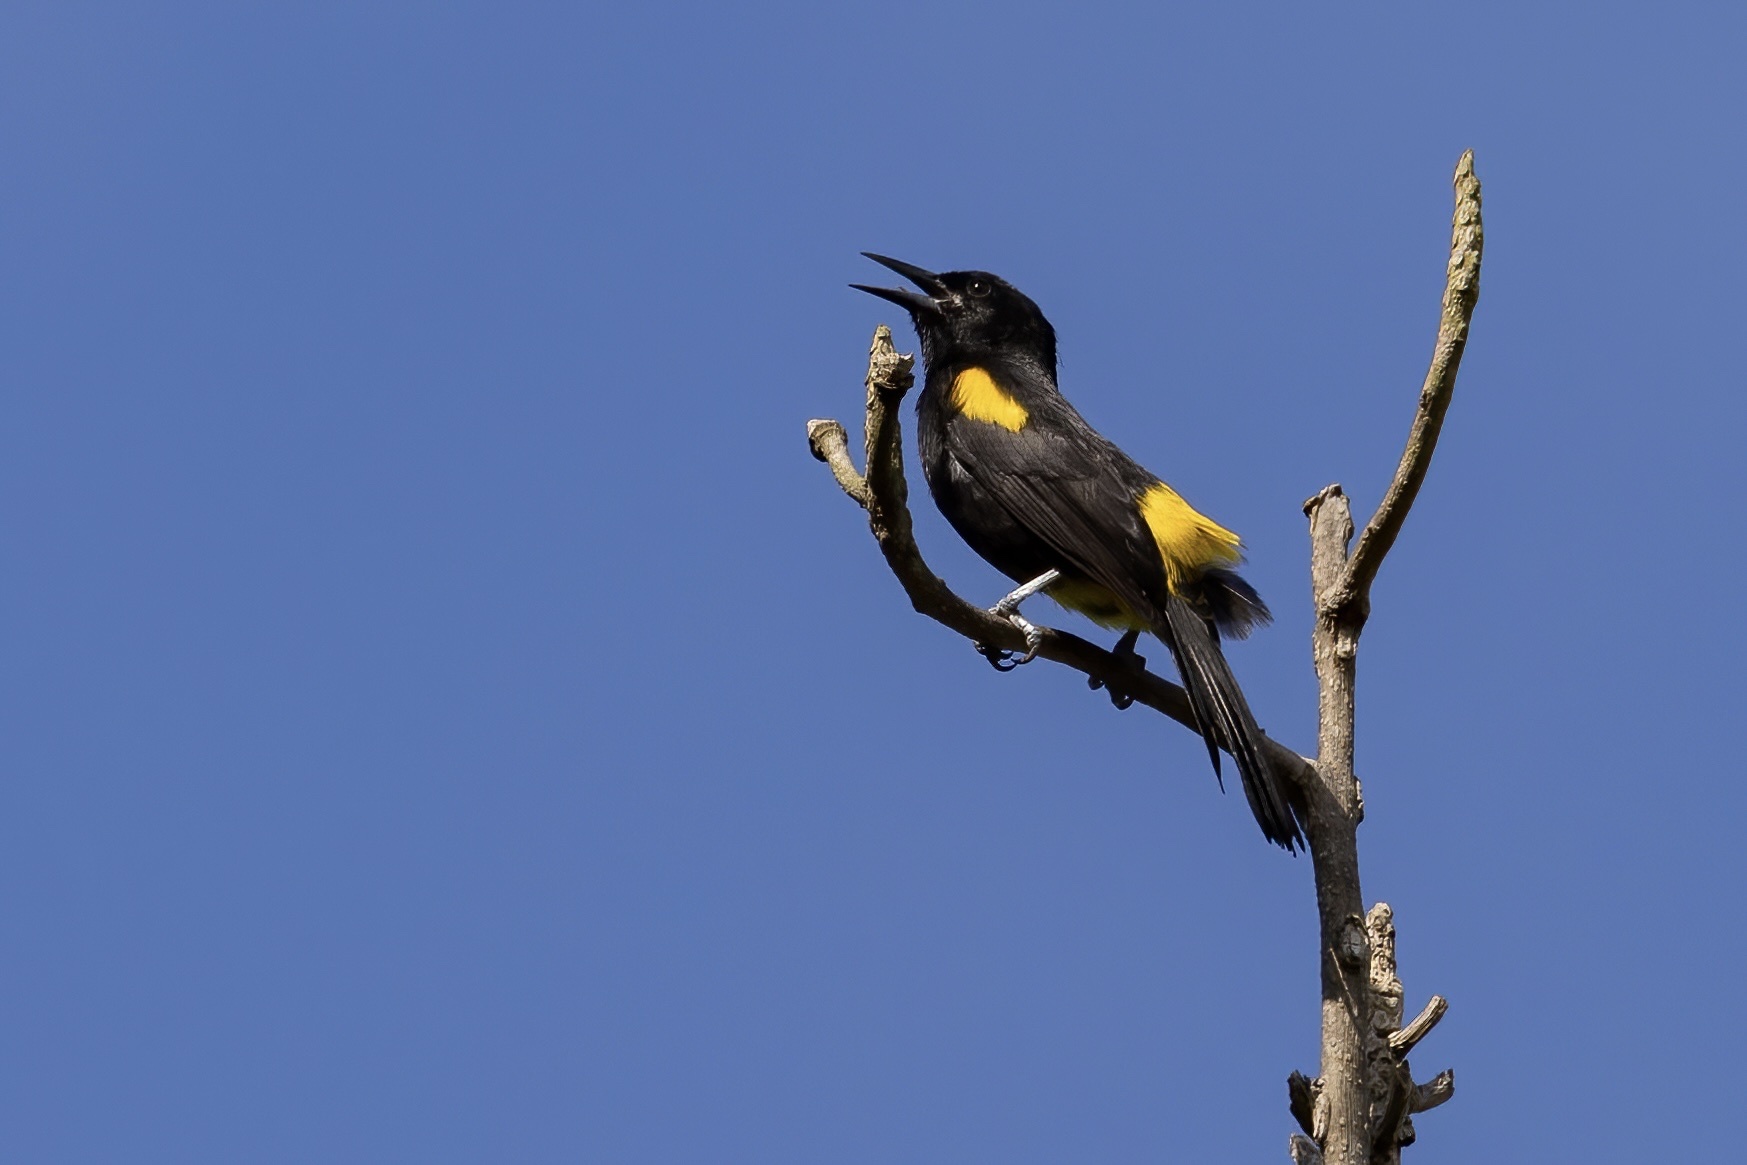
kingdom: Animalia
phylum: Chordata
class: Aves
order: Passeriformes
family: Icteridae
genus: Icterus
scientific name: Icterus portoricensis
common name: Puerto rican oriole
